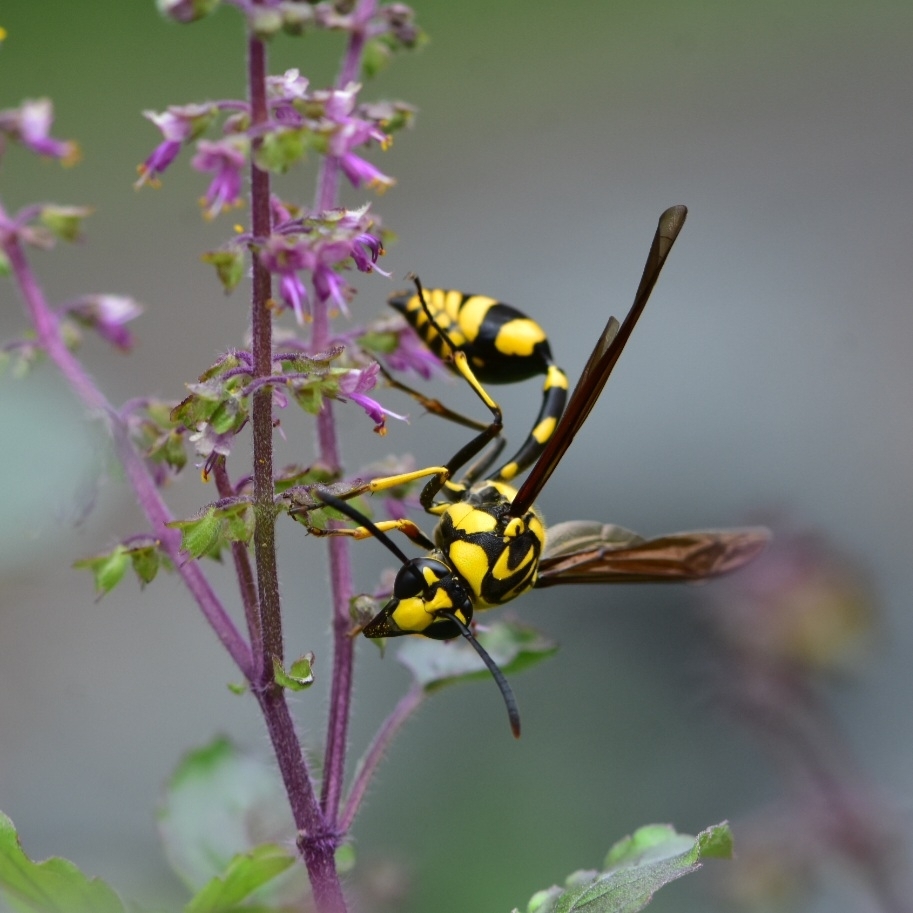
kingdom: Animalia
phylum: Arthropoda
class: Insecta
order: Hymenoptera
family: Eumenidae
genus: Phimenes
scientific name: Phimenes flavopictus
